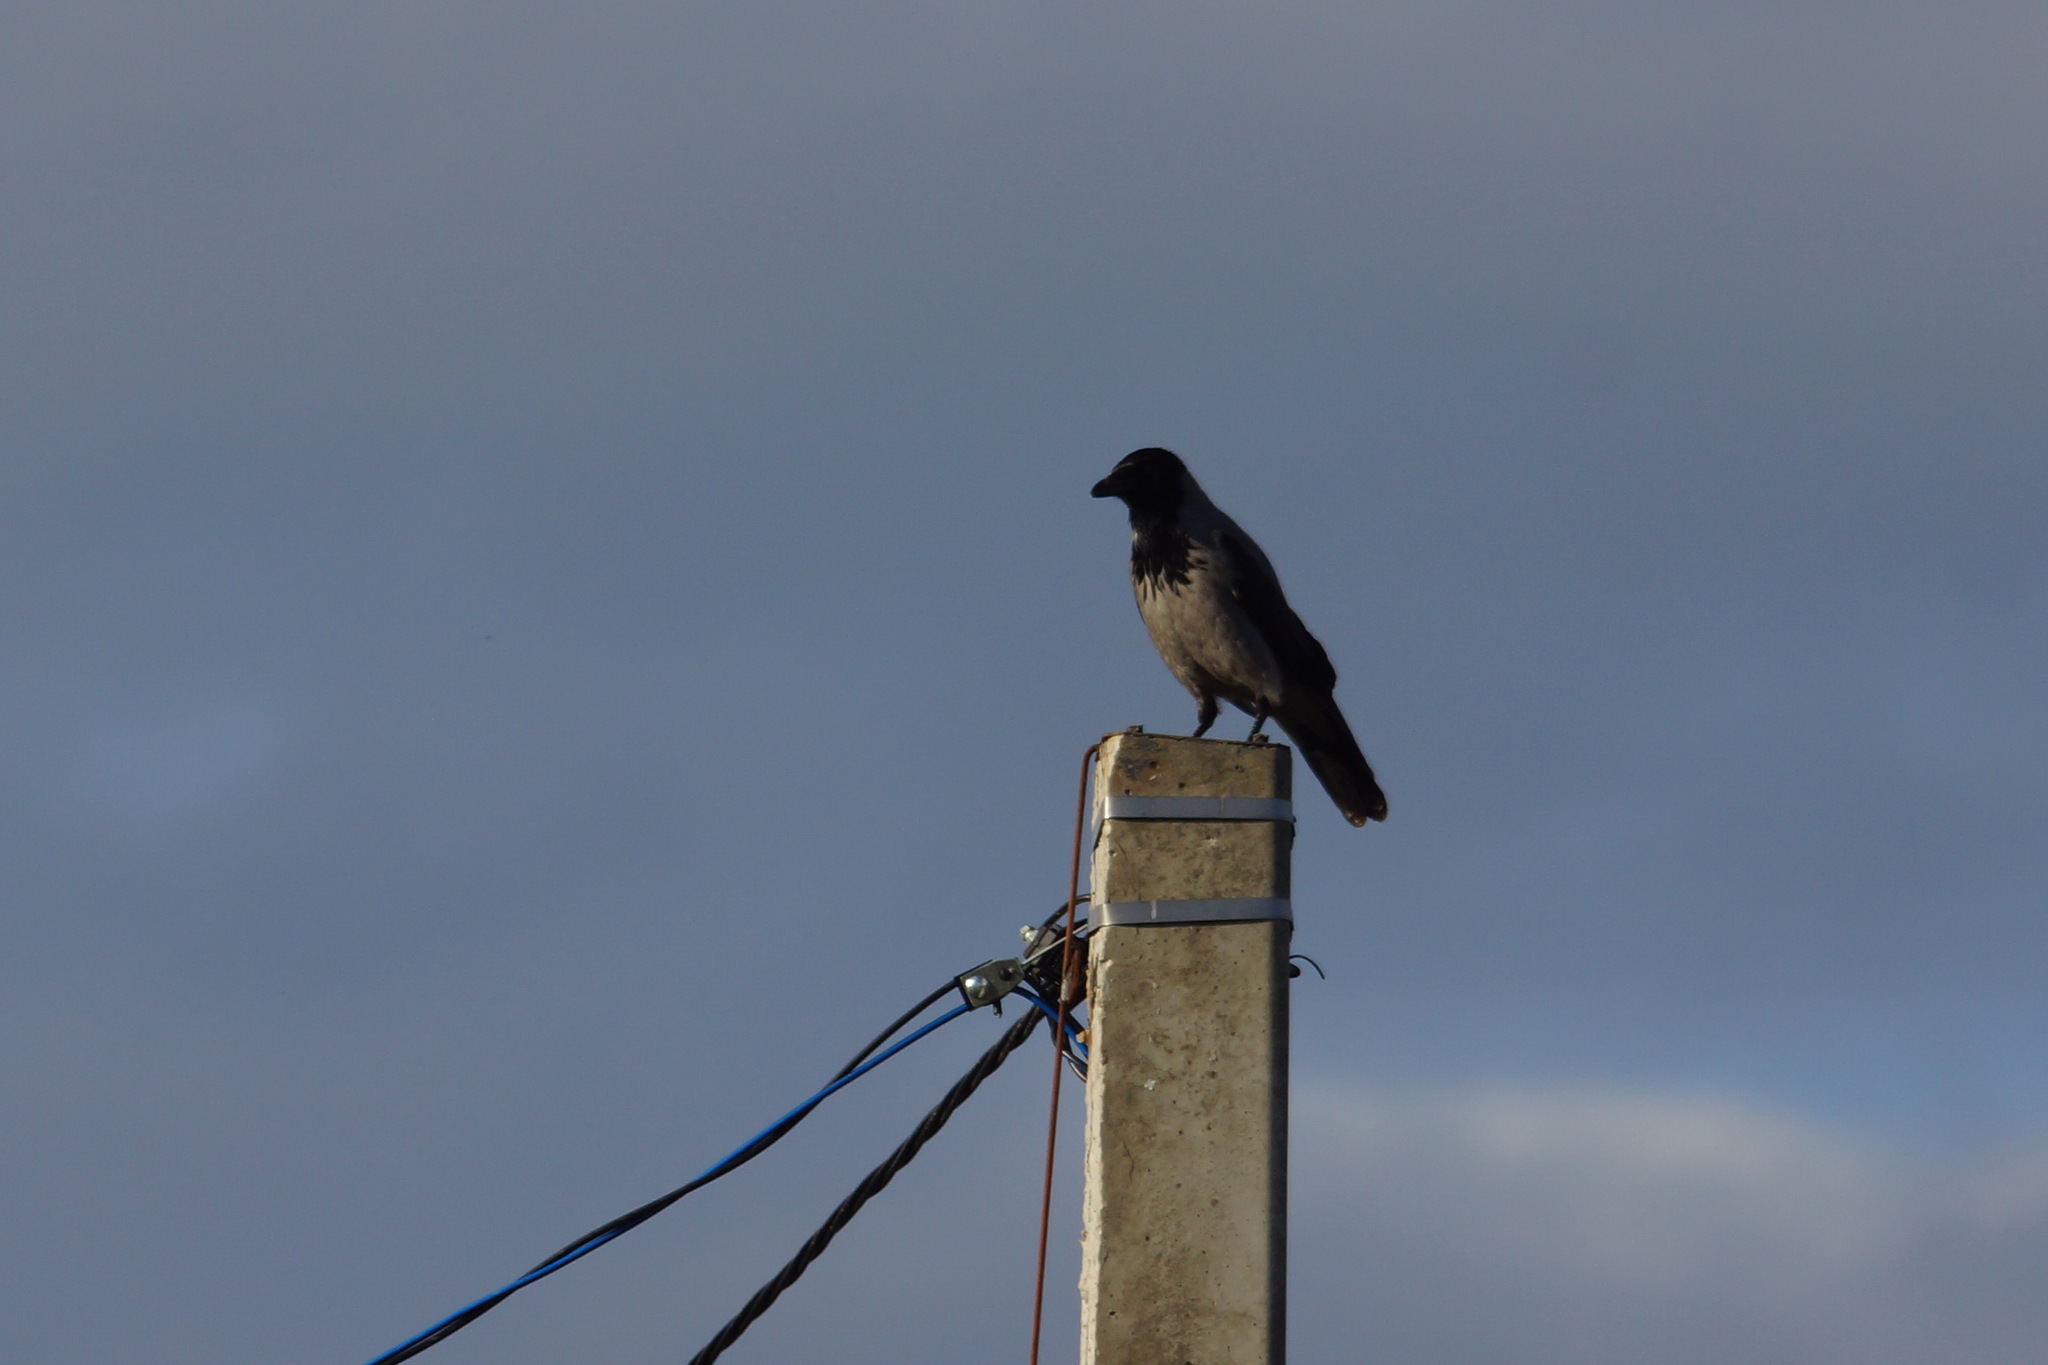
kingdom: Animalia
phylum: Chordata
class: Aves
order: Passeriformes
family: Corvidae
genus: Corvus
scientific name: Corvus cornix
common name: Hooded crow
